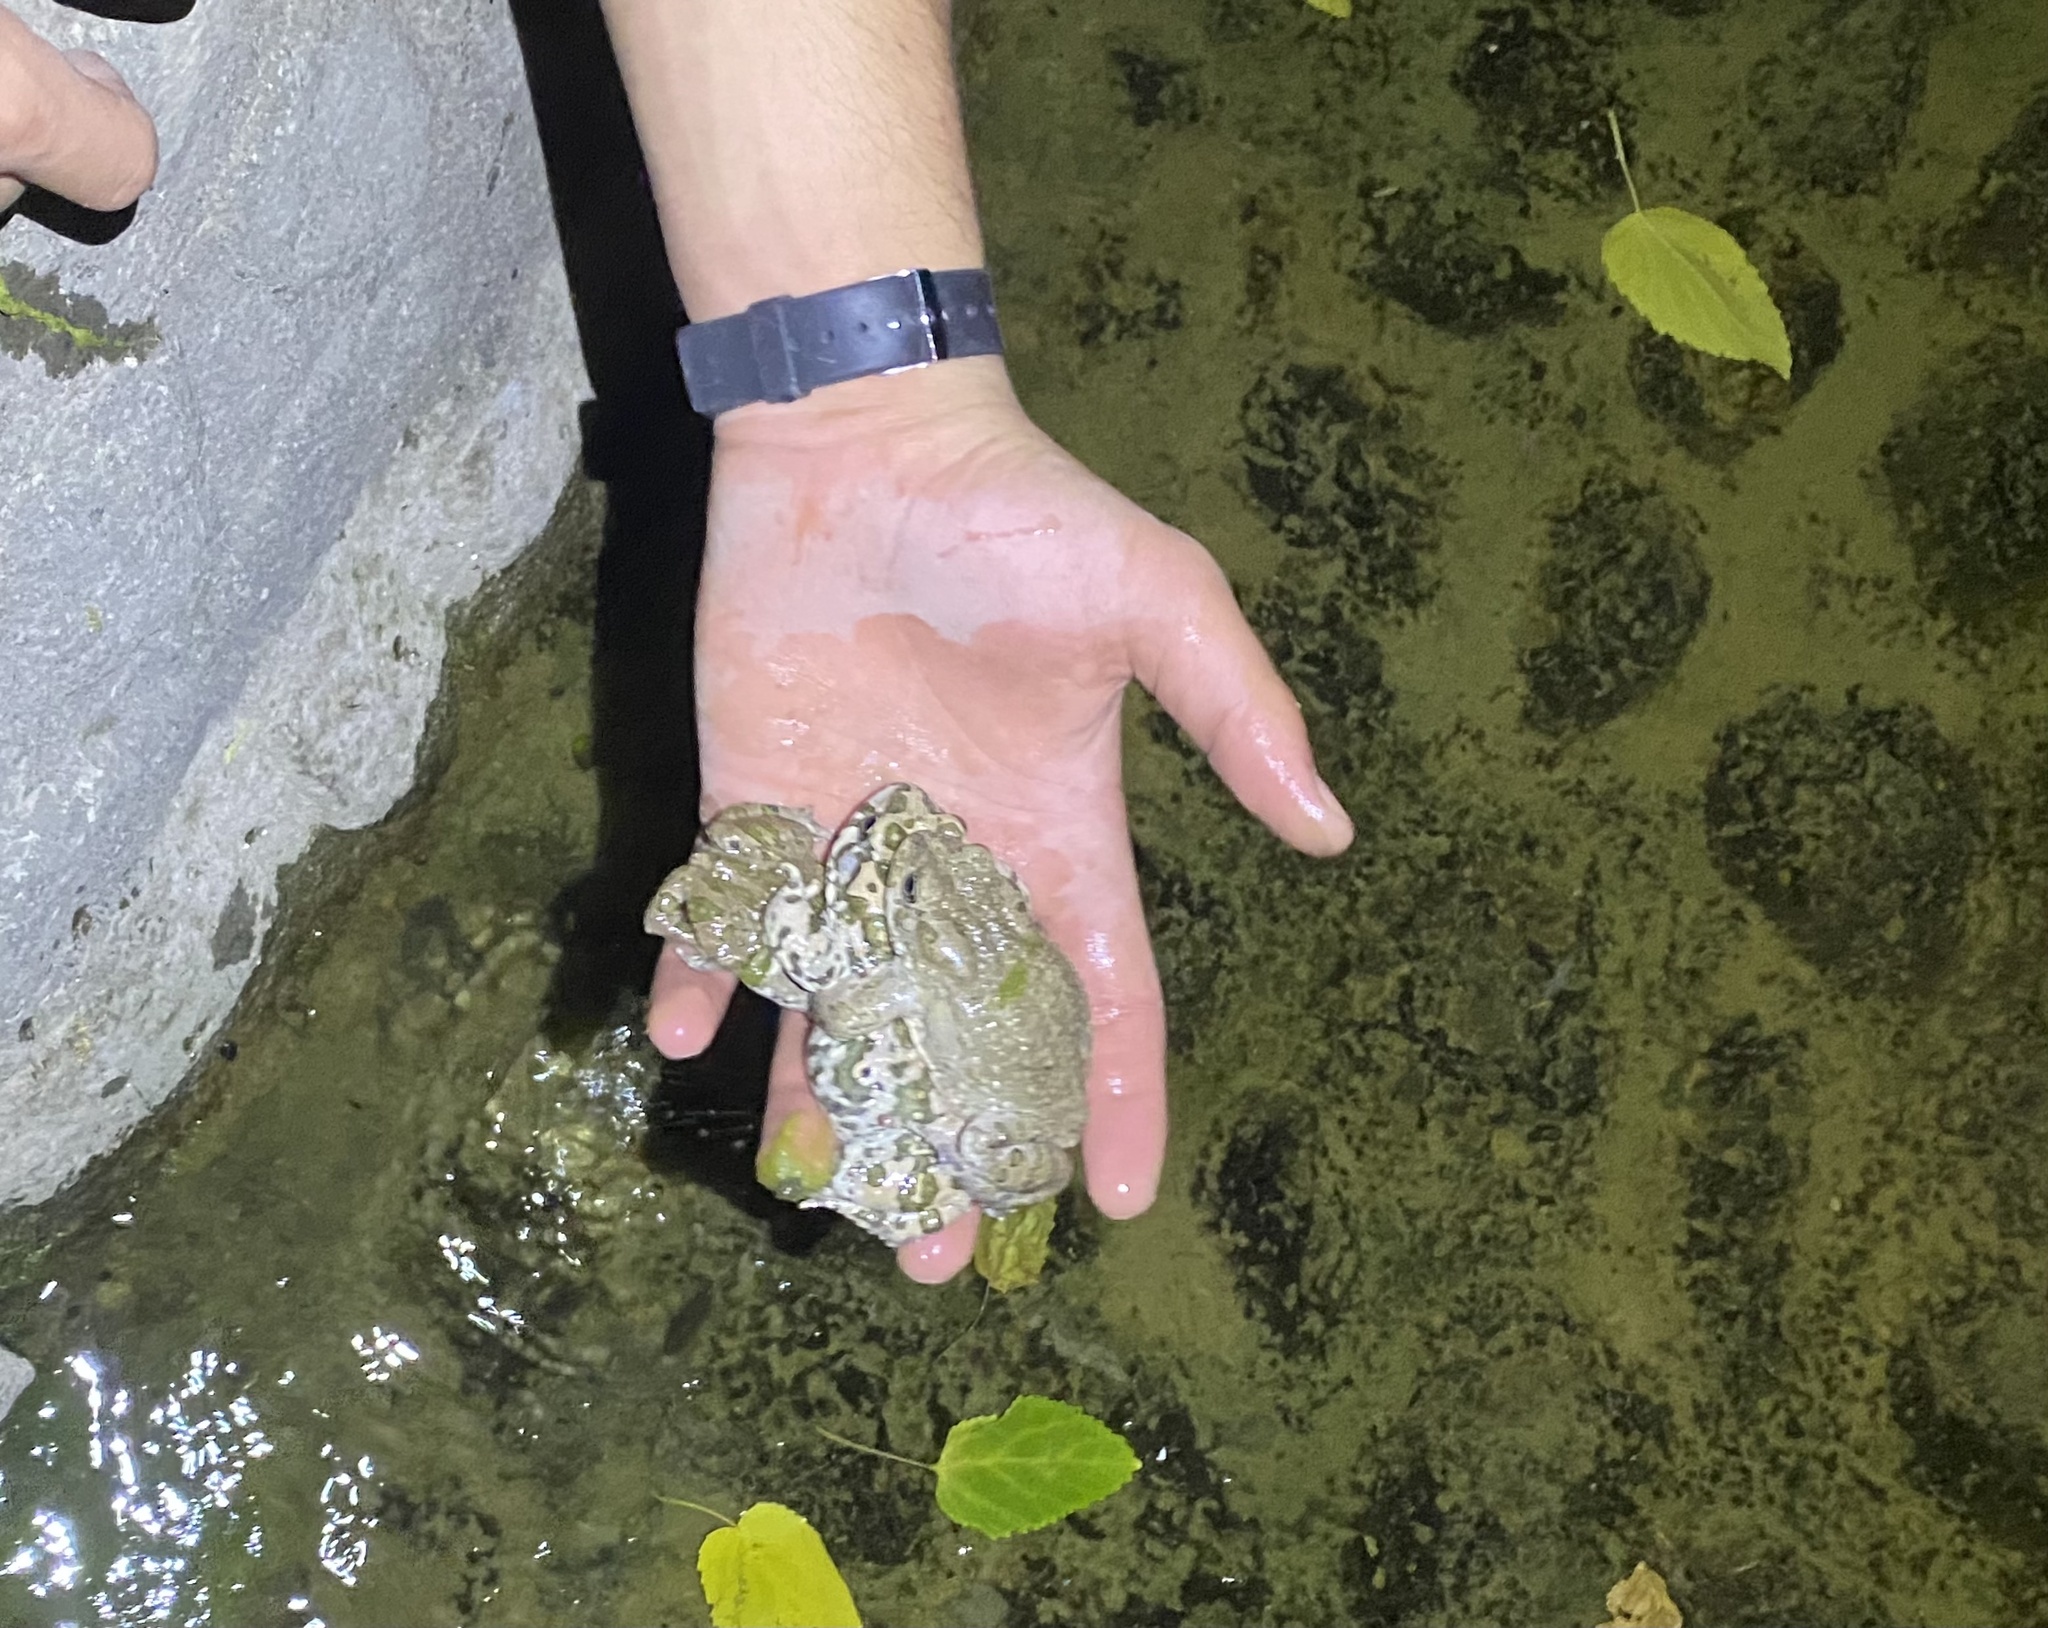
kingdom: Animalia
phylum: Chordata
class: Amphibia
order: Anura
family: Bufonidae
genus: Bufotes
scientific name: Bufotes viridis
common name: European green toad
